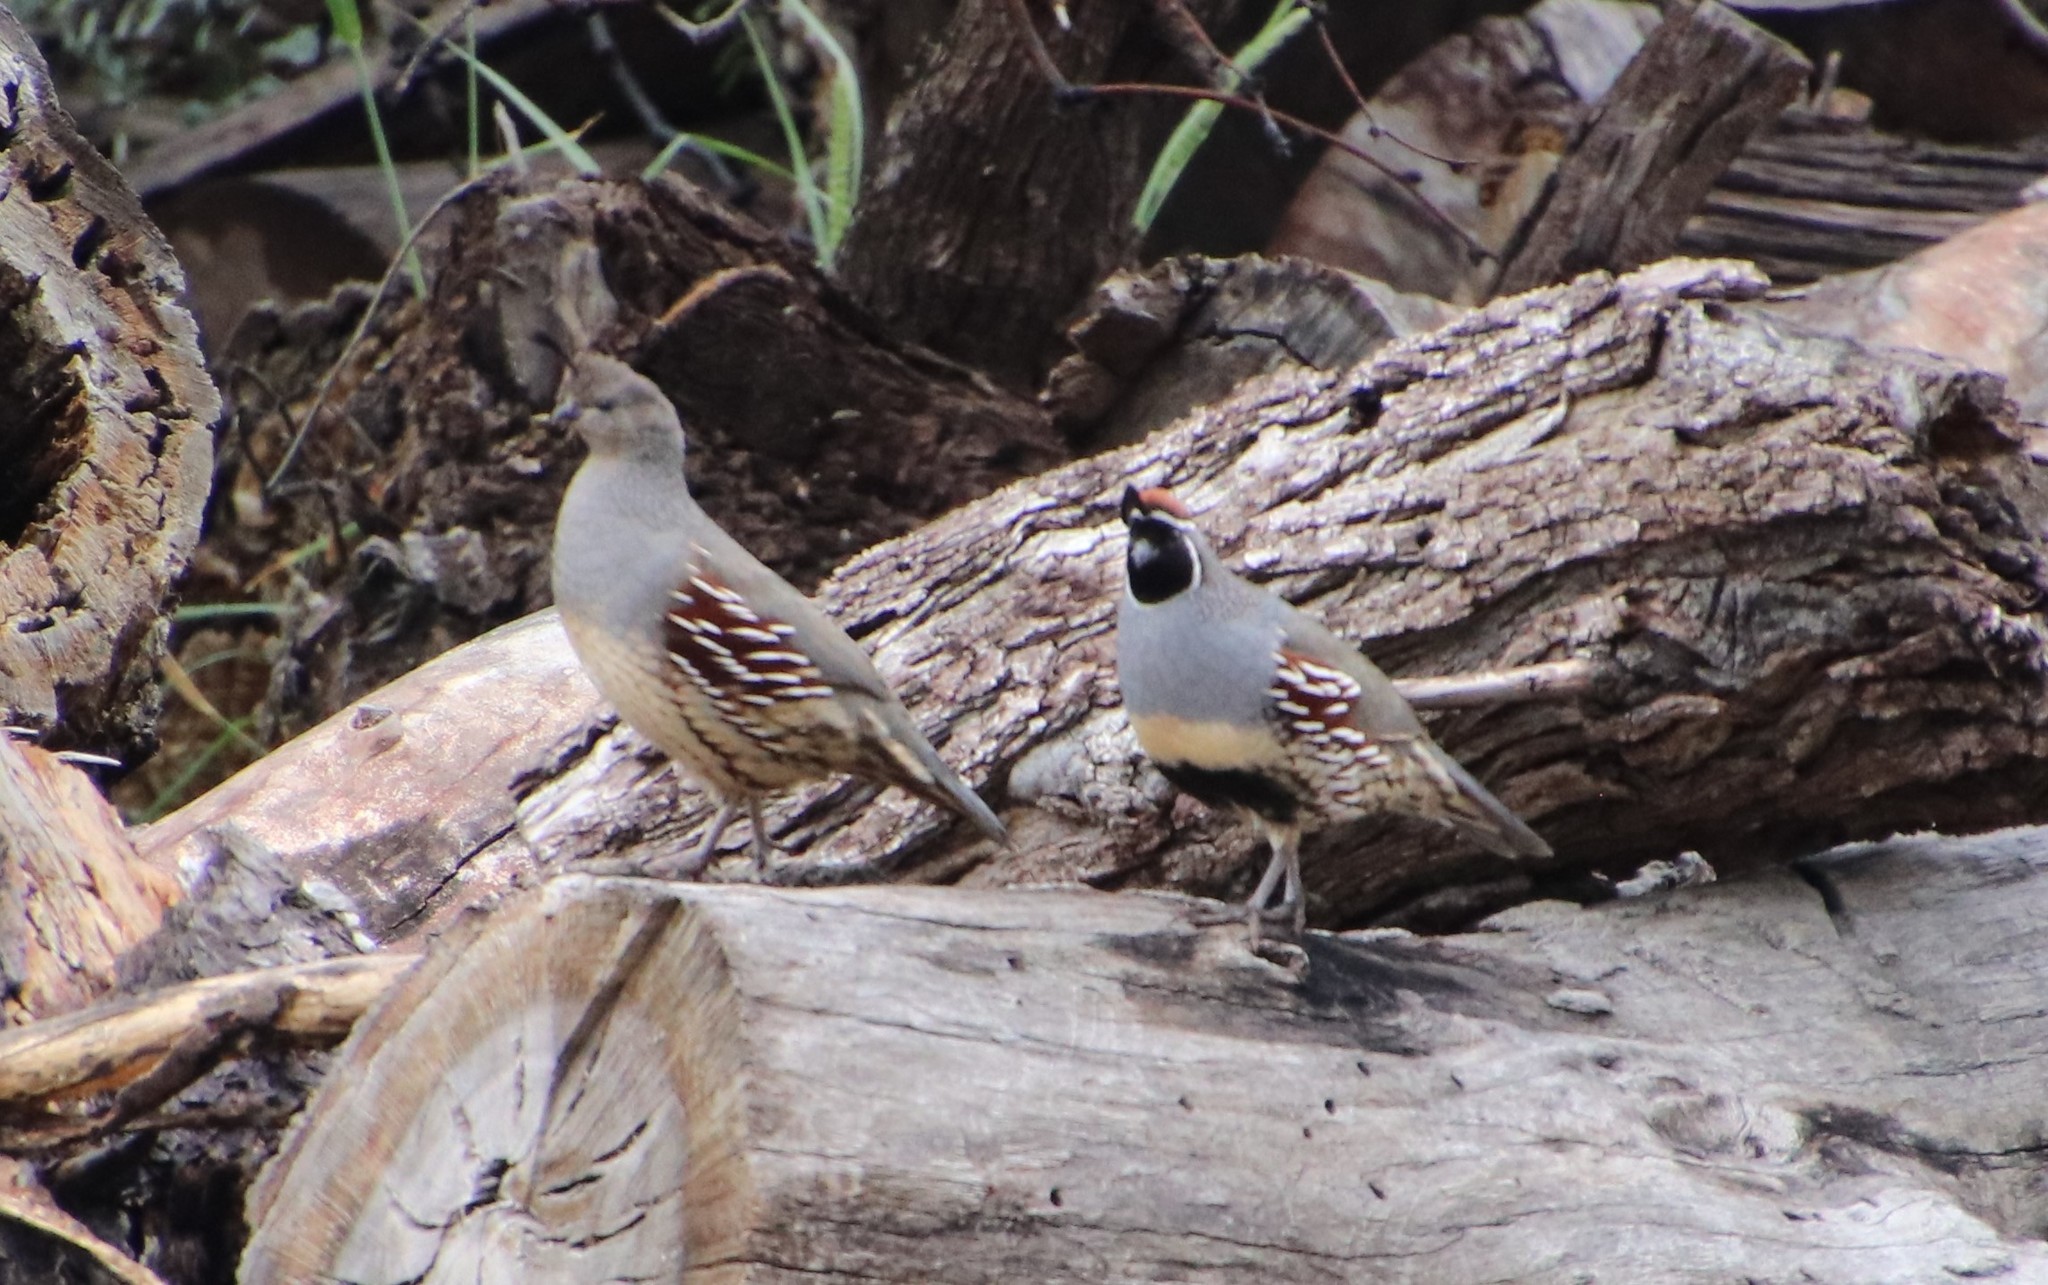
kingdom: Animalia
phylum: Chordata
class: Aves
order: Galliformes
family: Odontophoridae
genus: Callipepla
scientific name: Callipepla gambelii
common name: Gambel's quail
